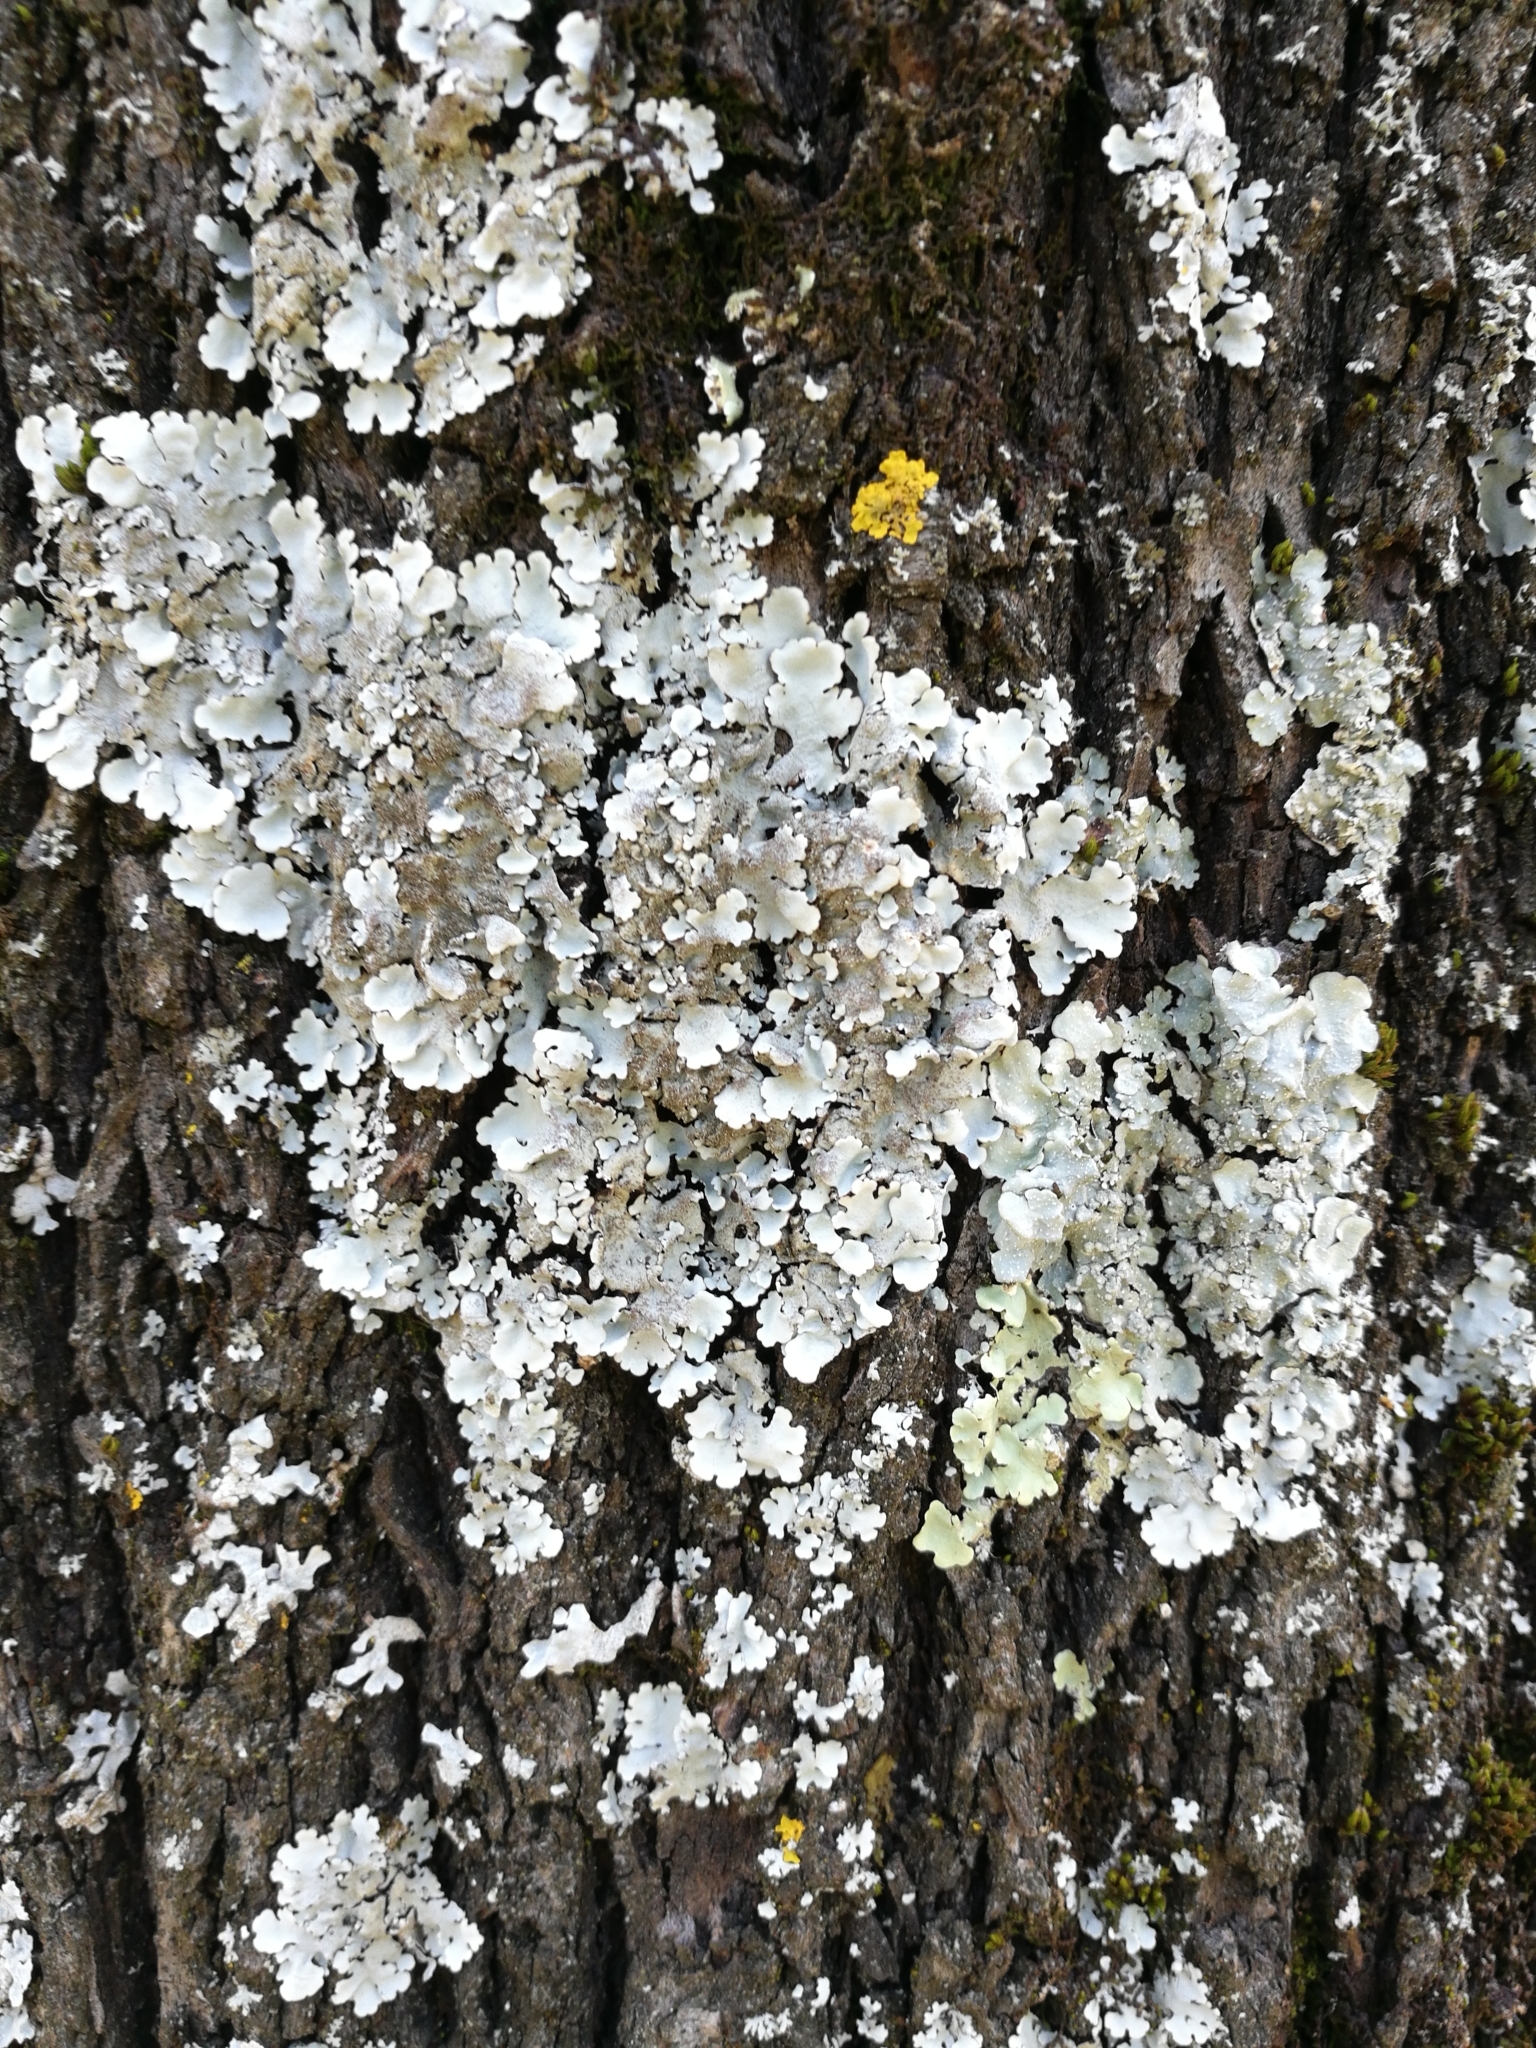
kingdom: Fungi
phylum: Ascomycota
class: Lecanoromycetes
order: Lecanorales
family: Parmeliaceae
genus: Parmelina
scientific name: Parmelina tiliacea
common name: Linden shield lichen
